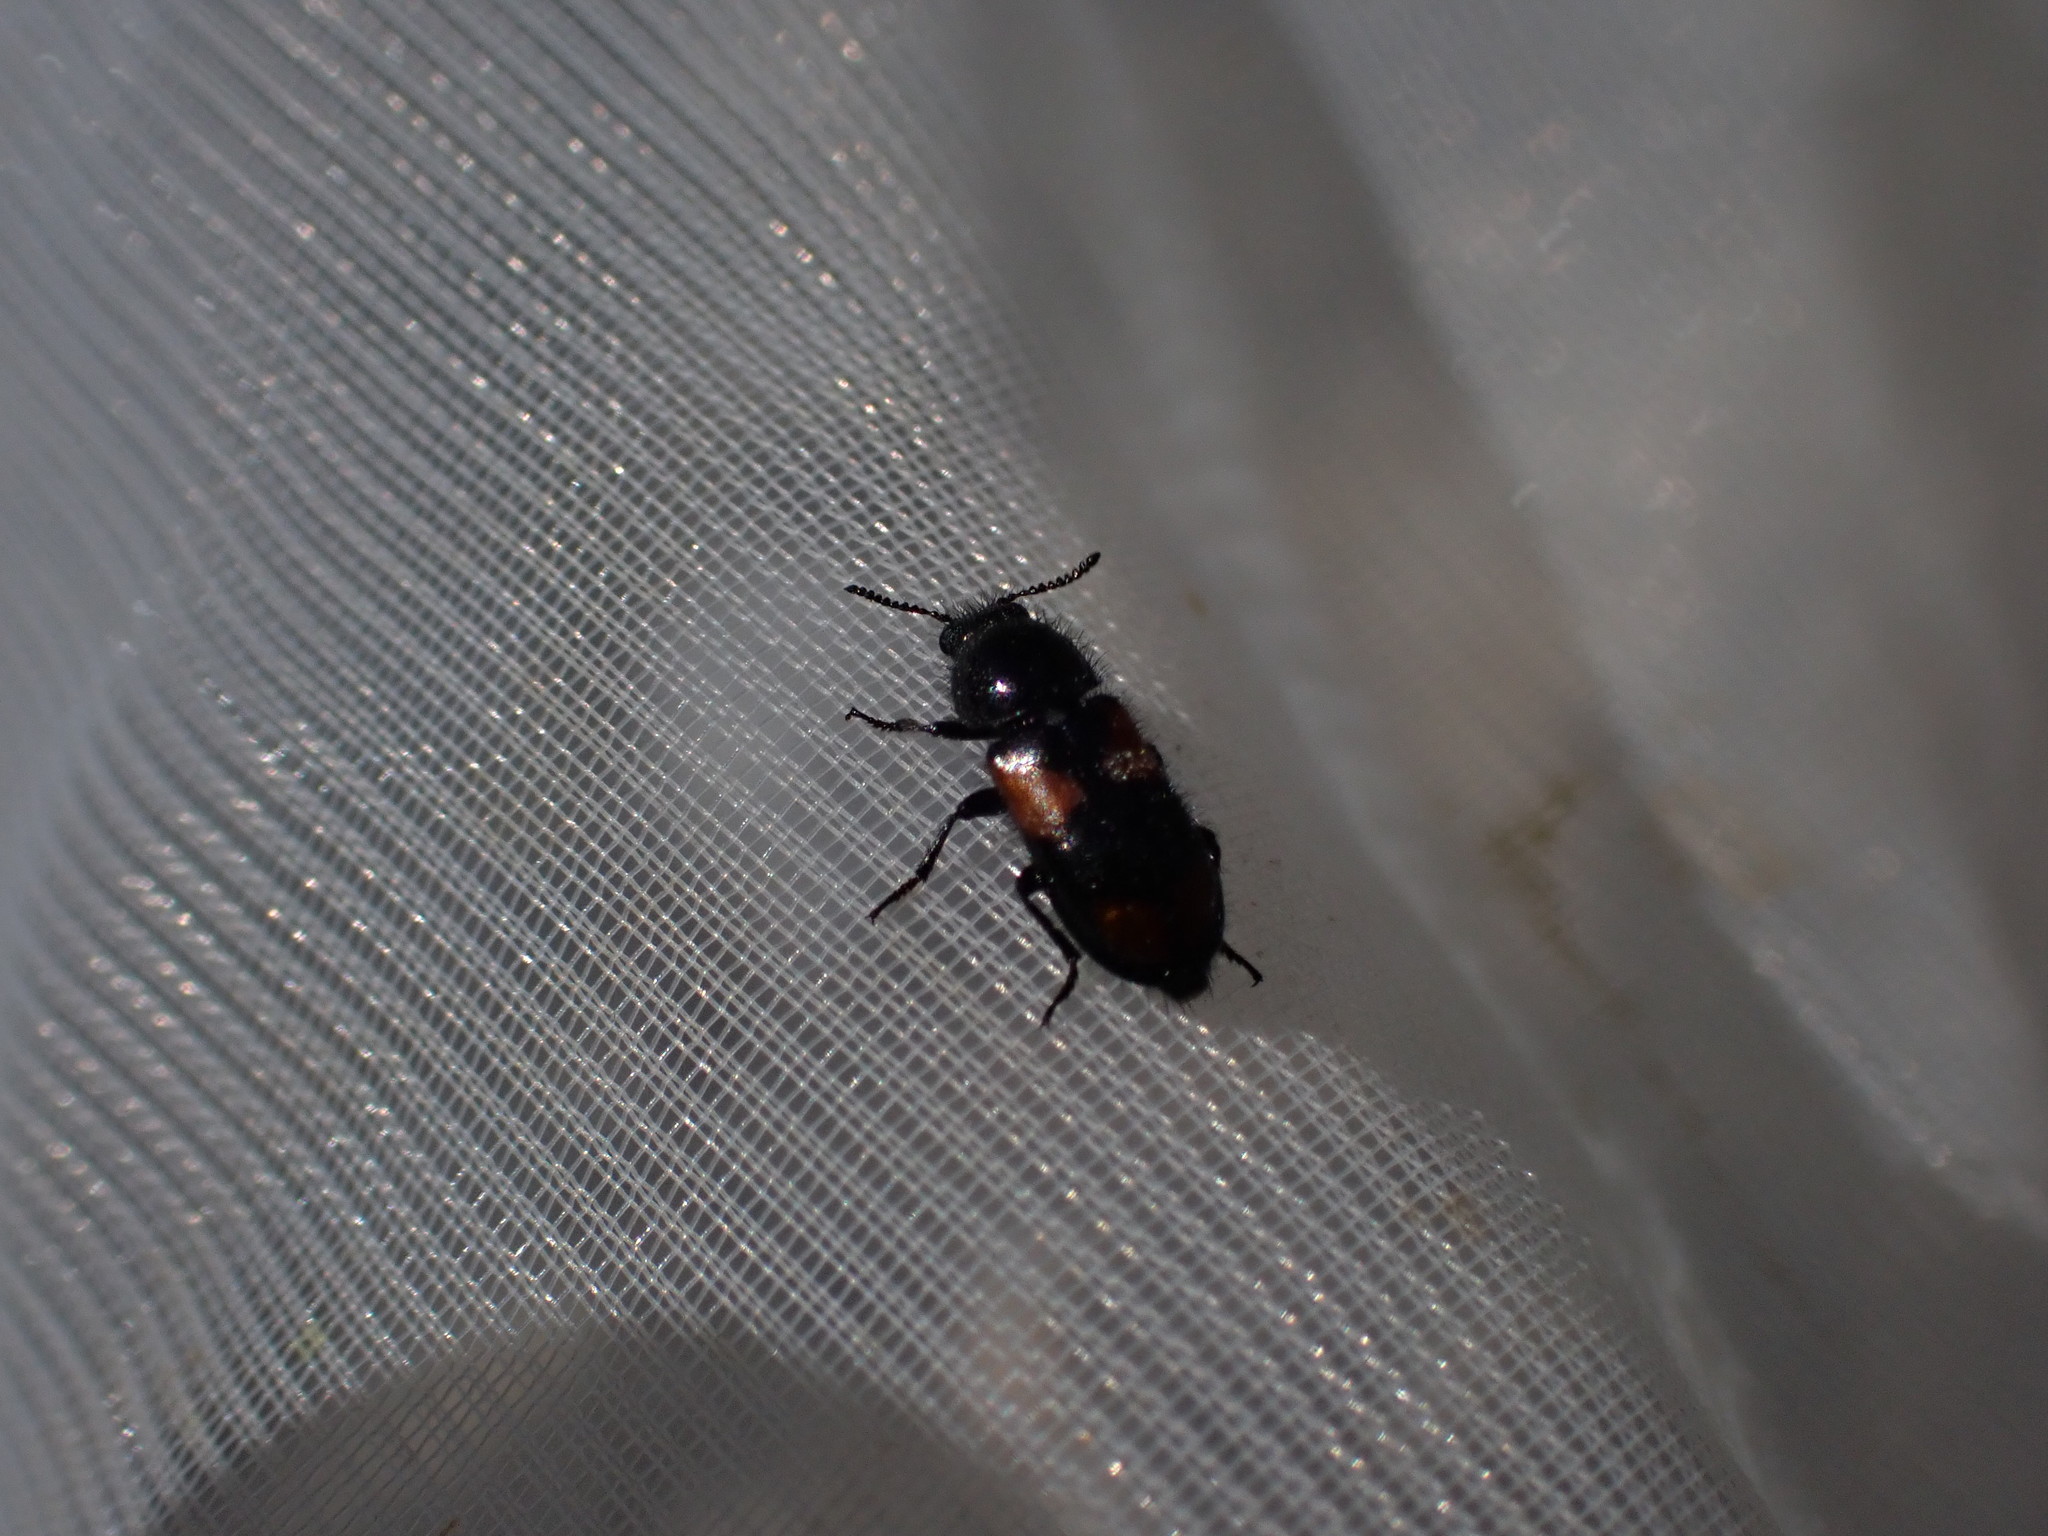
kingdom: Animalia
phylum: Arthropoda
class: Insecta
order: Coleoptera
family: Melyridae
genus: Divales
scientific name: Divales quadrimaculatus
